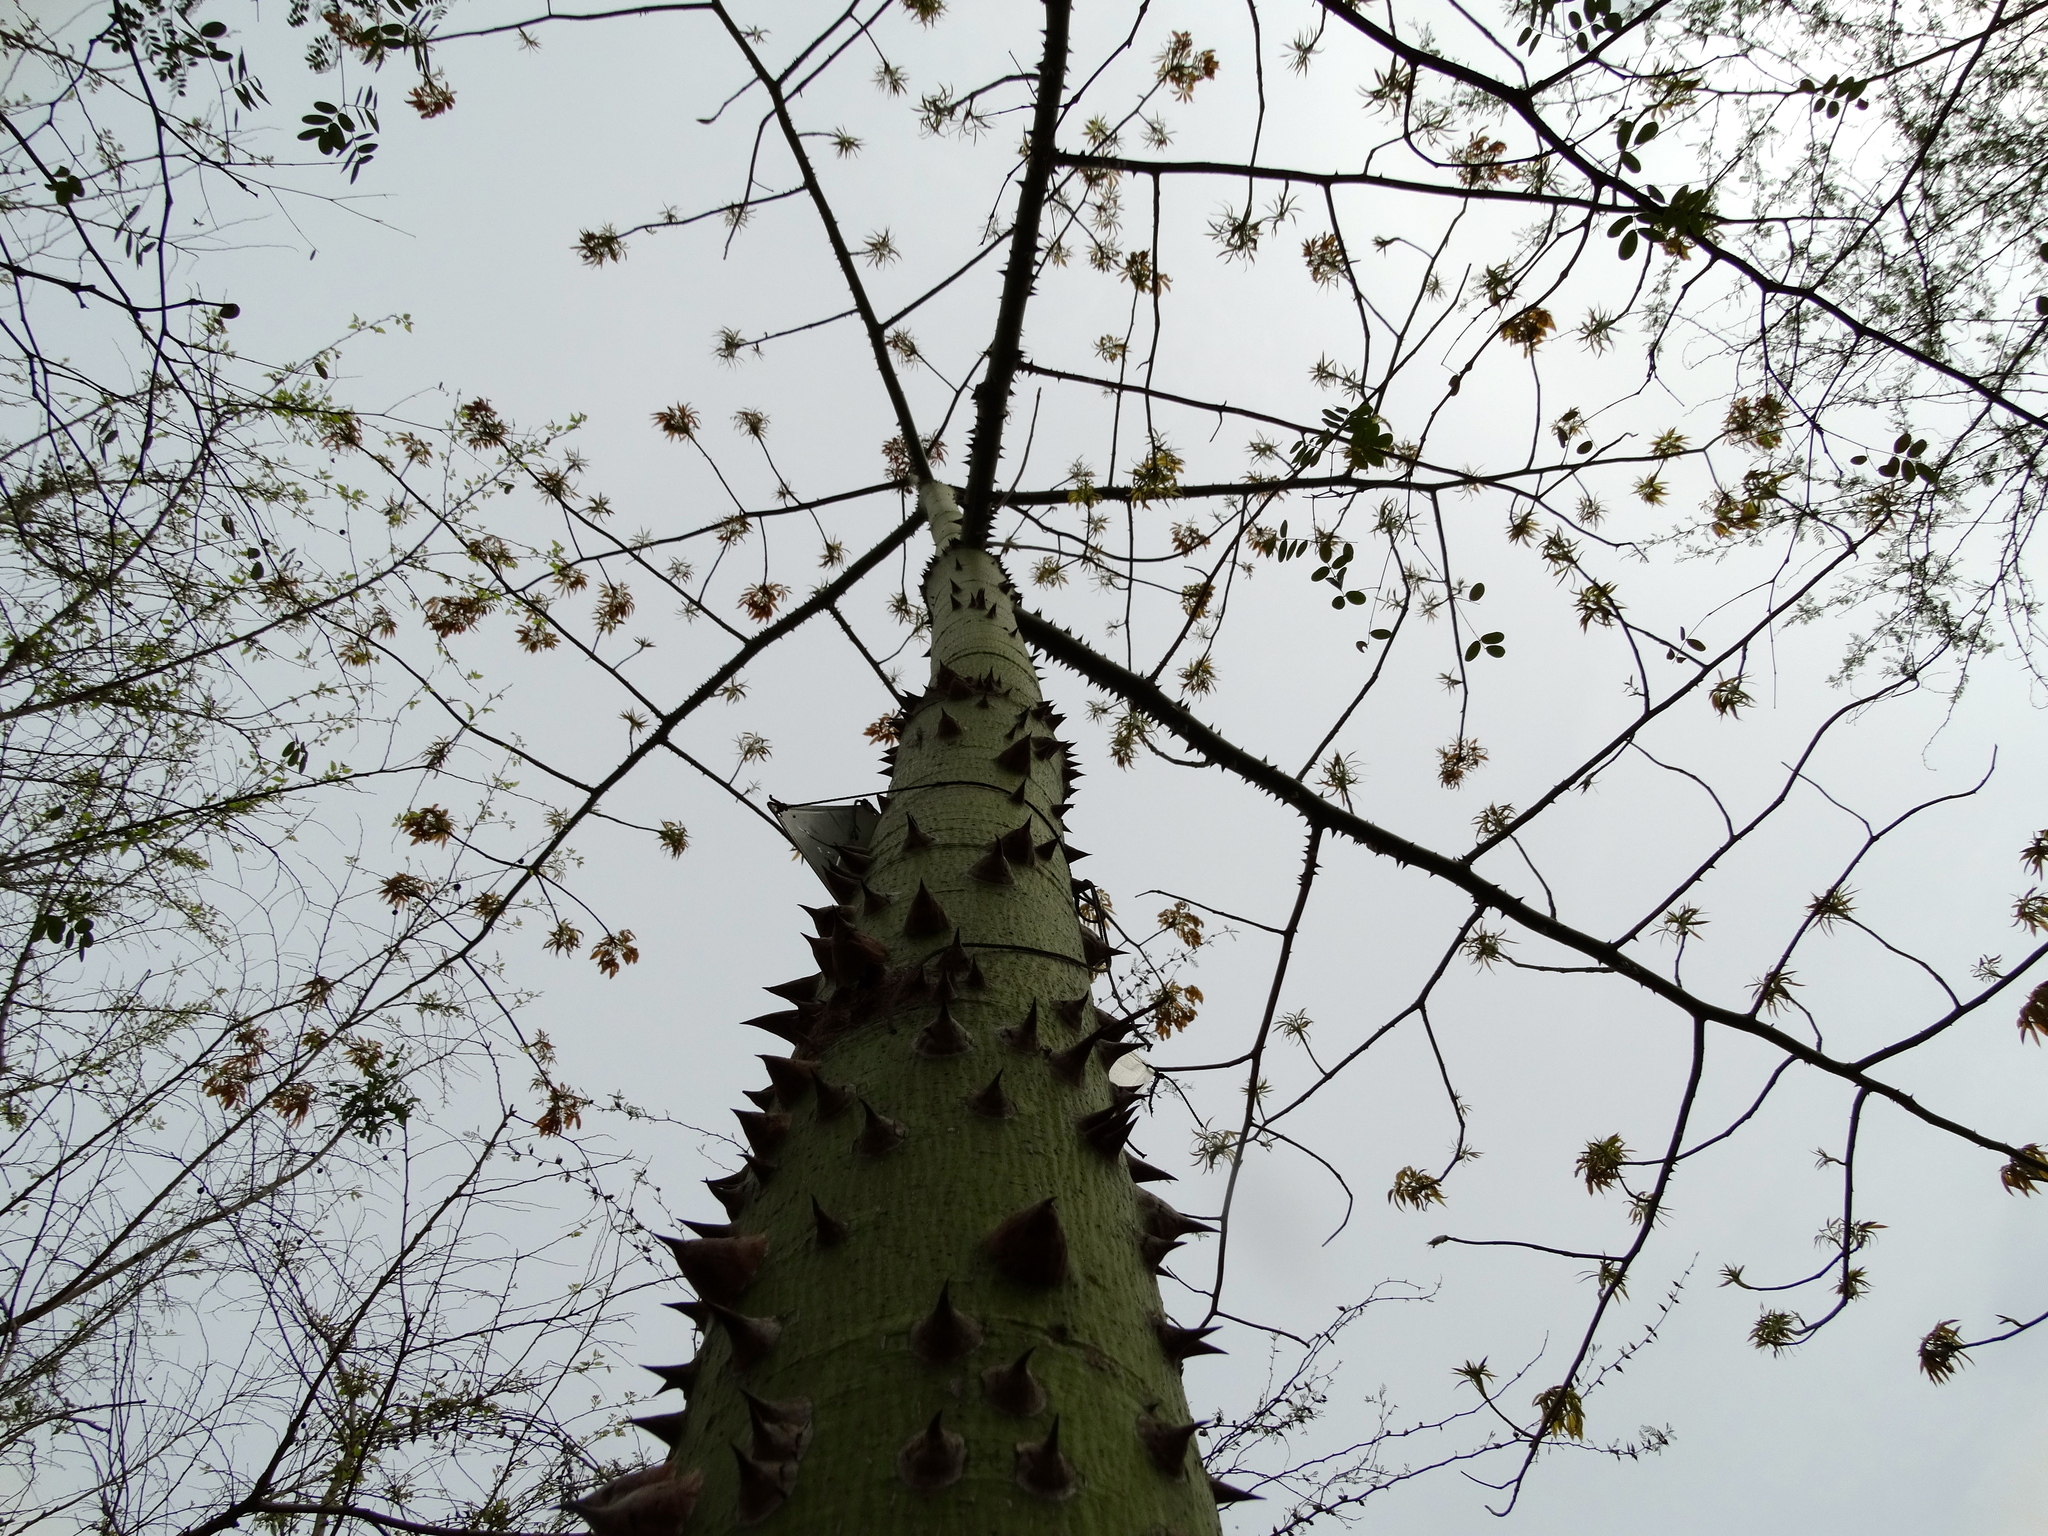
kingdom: Plantae
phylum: Tracheophyta
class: Magnoliopsida
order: Malvales
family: Malvaceae
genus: Ceiba
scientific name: Ceiba pentandra
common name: Kapok
